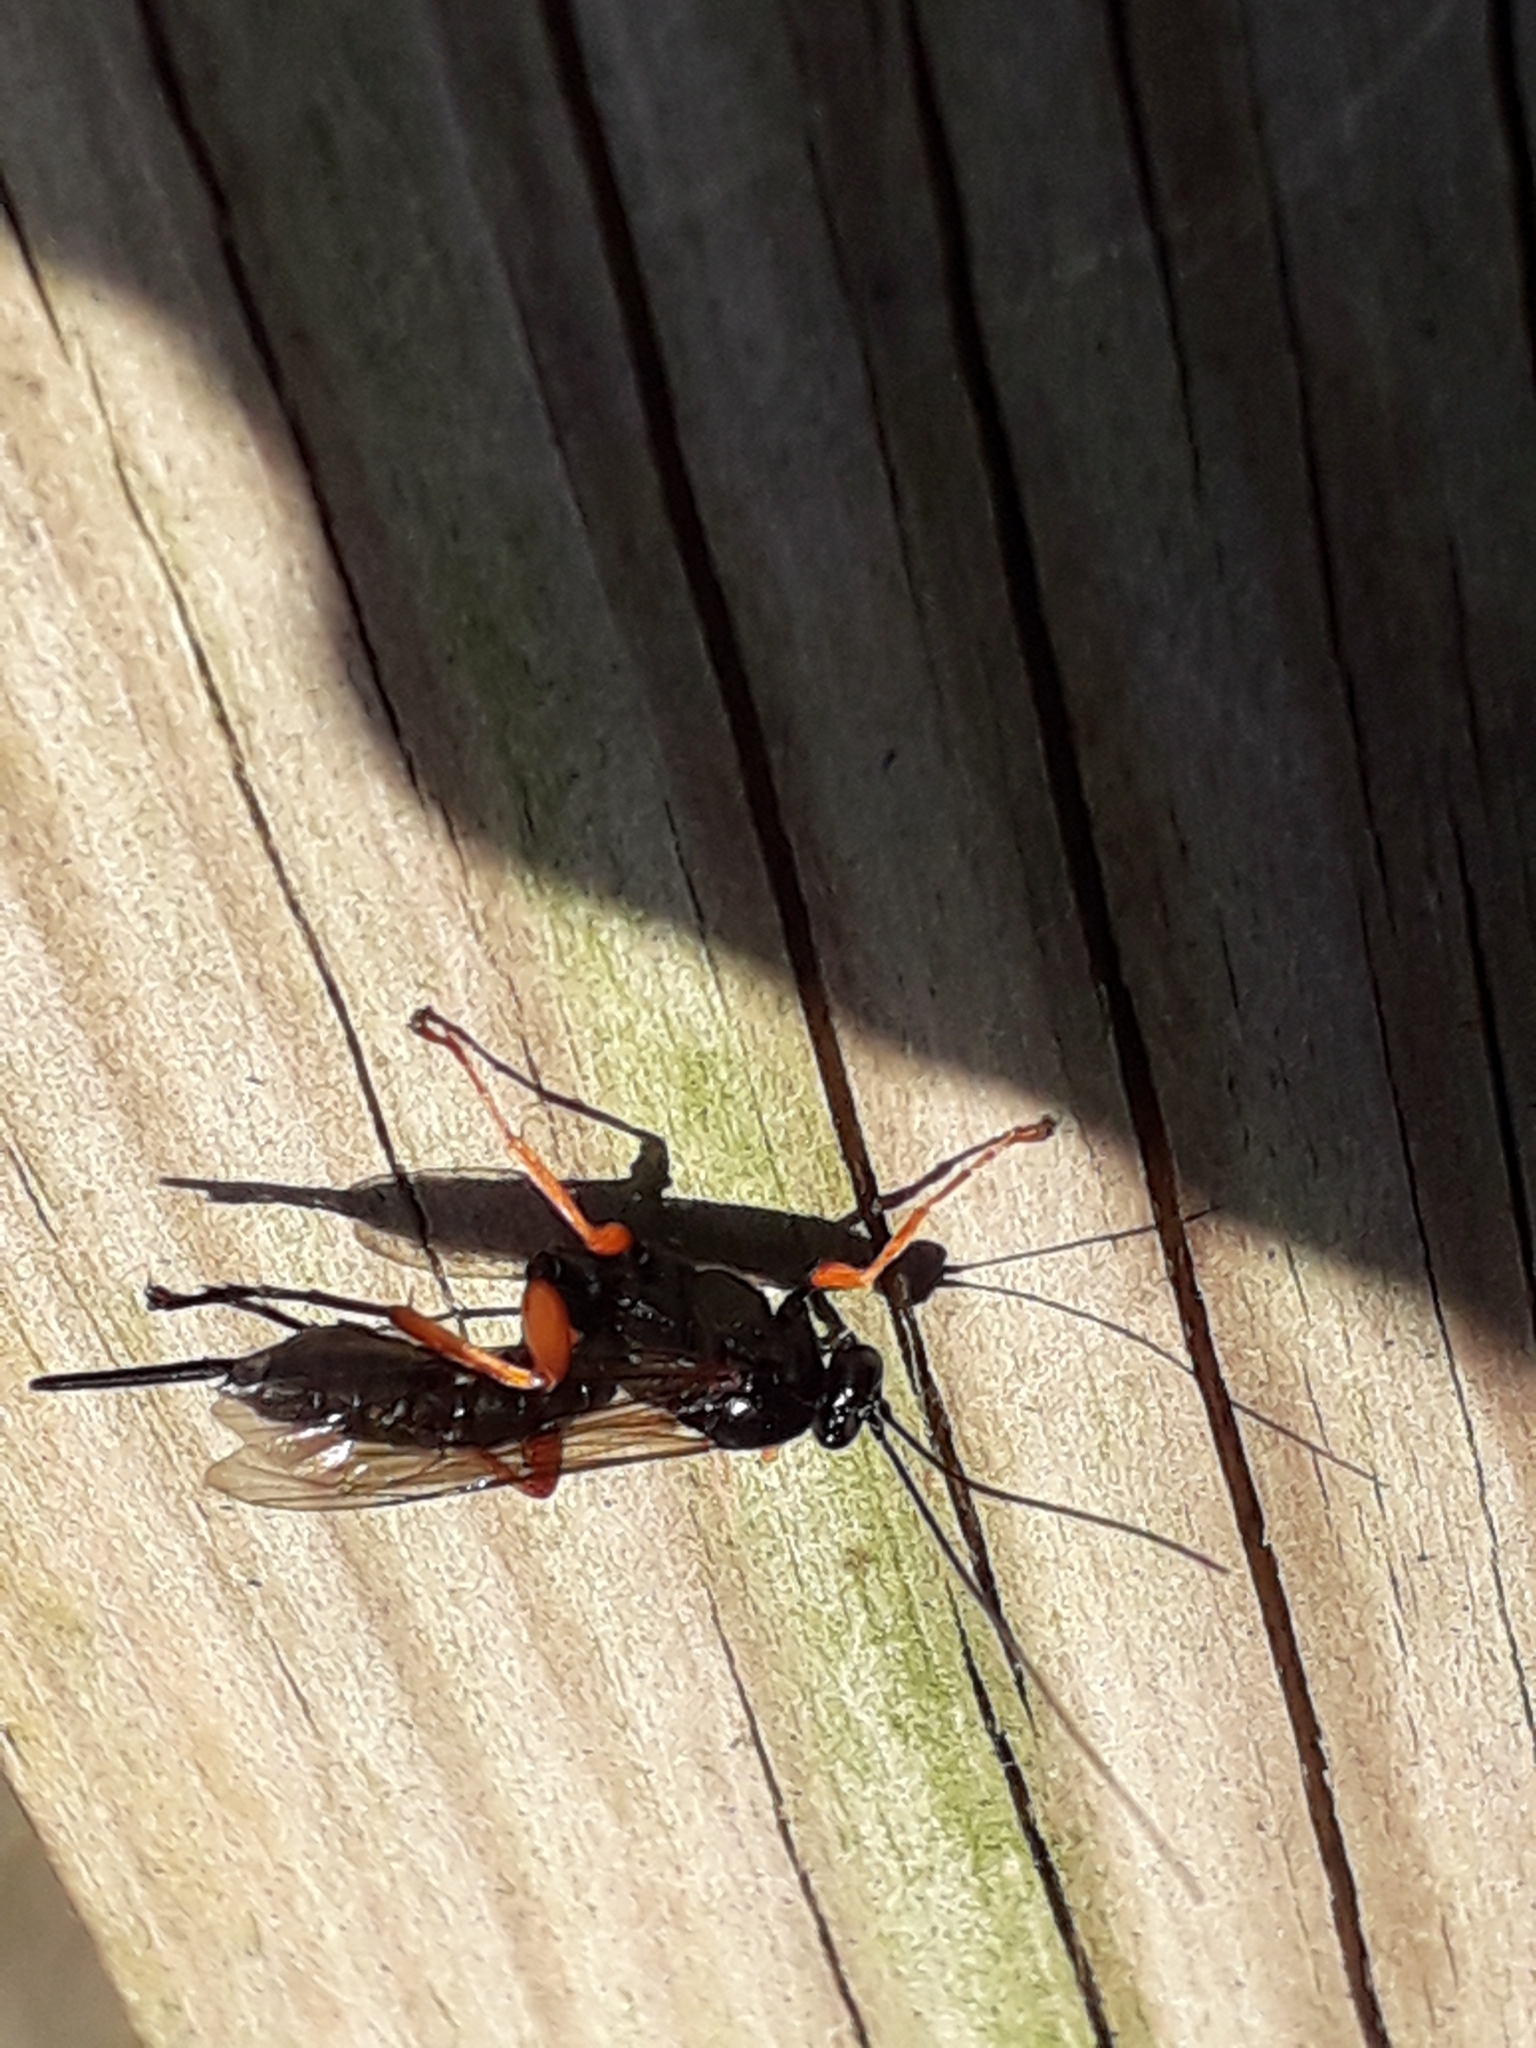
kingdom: Animalia
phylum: Arthropoda
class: Insecta
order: Hymenoptera
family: Ichneumonidae
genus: Pimpla
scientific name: Pimpla rufipes
